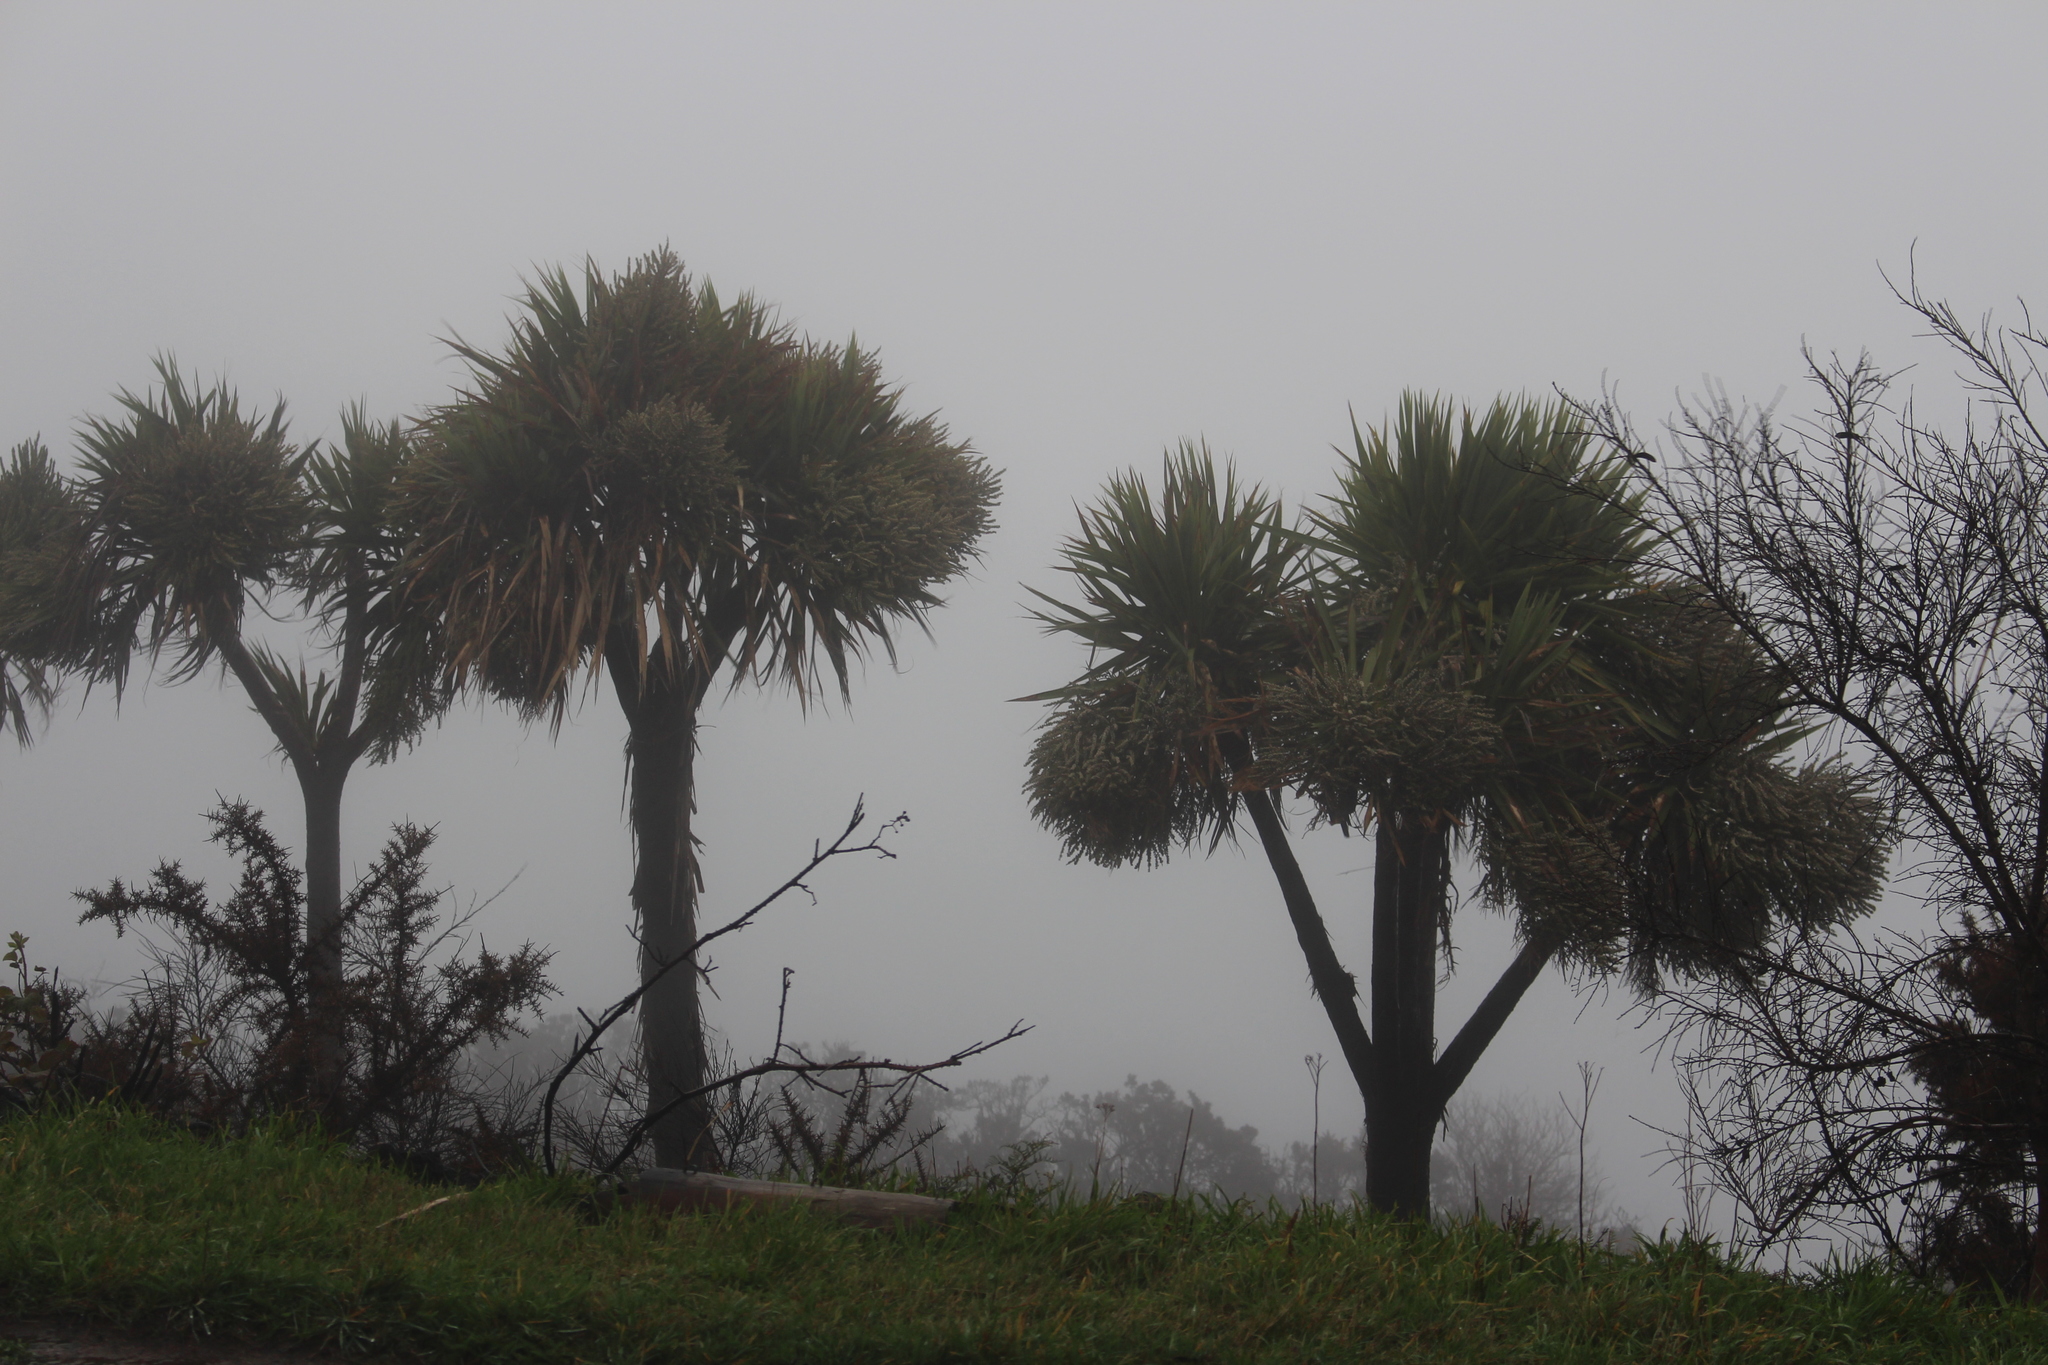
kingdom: Plantae
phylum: Tracheophyta
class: Liliopsida
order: Asparagales
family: Asparagaceae
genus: Cordyline
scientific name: Cordyline australis
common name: Cabbage-palm
